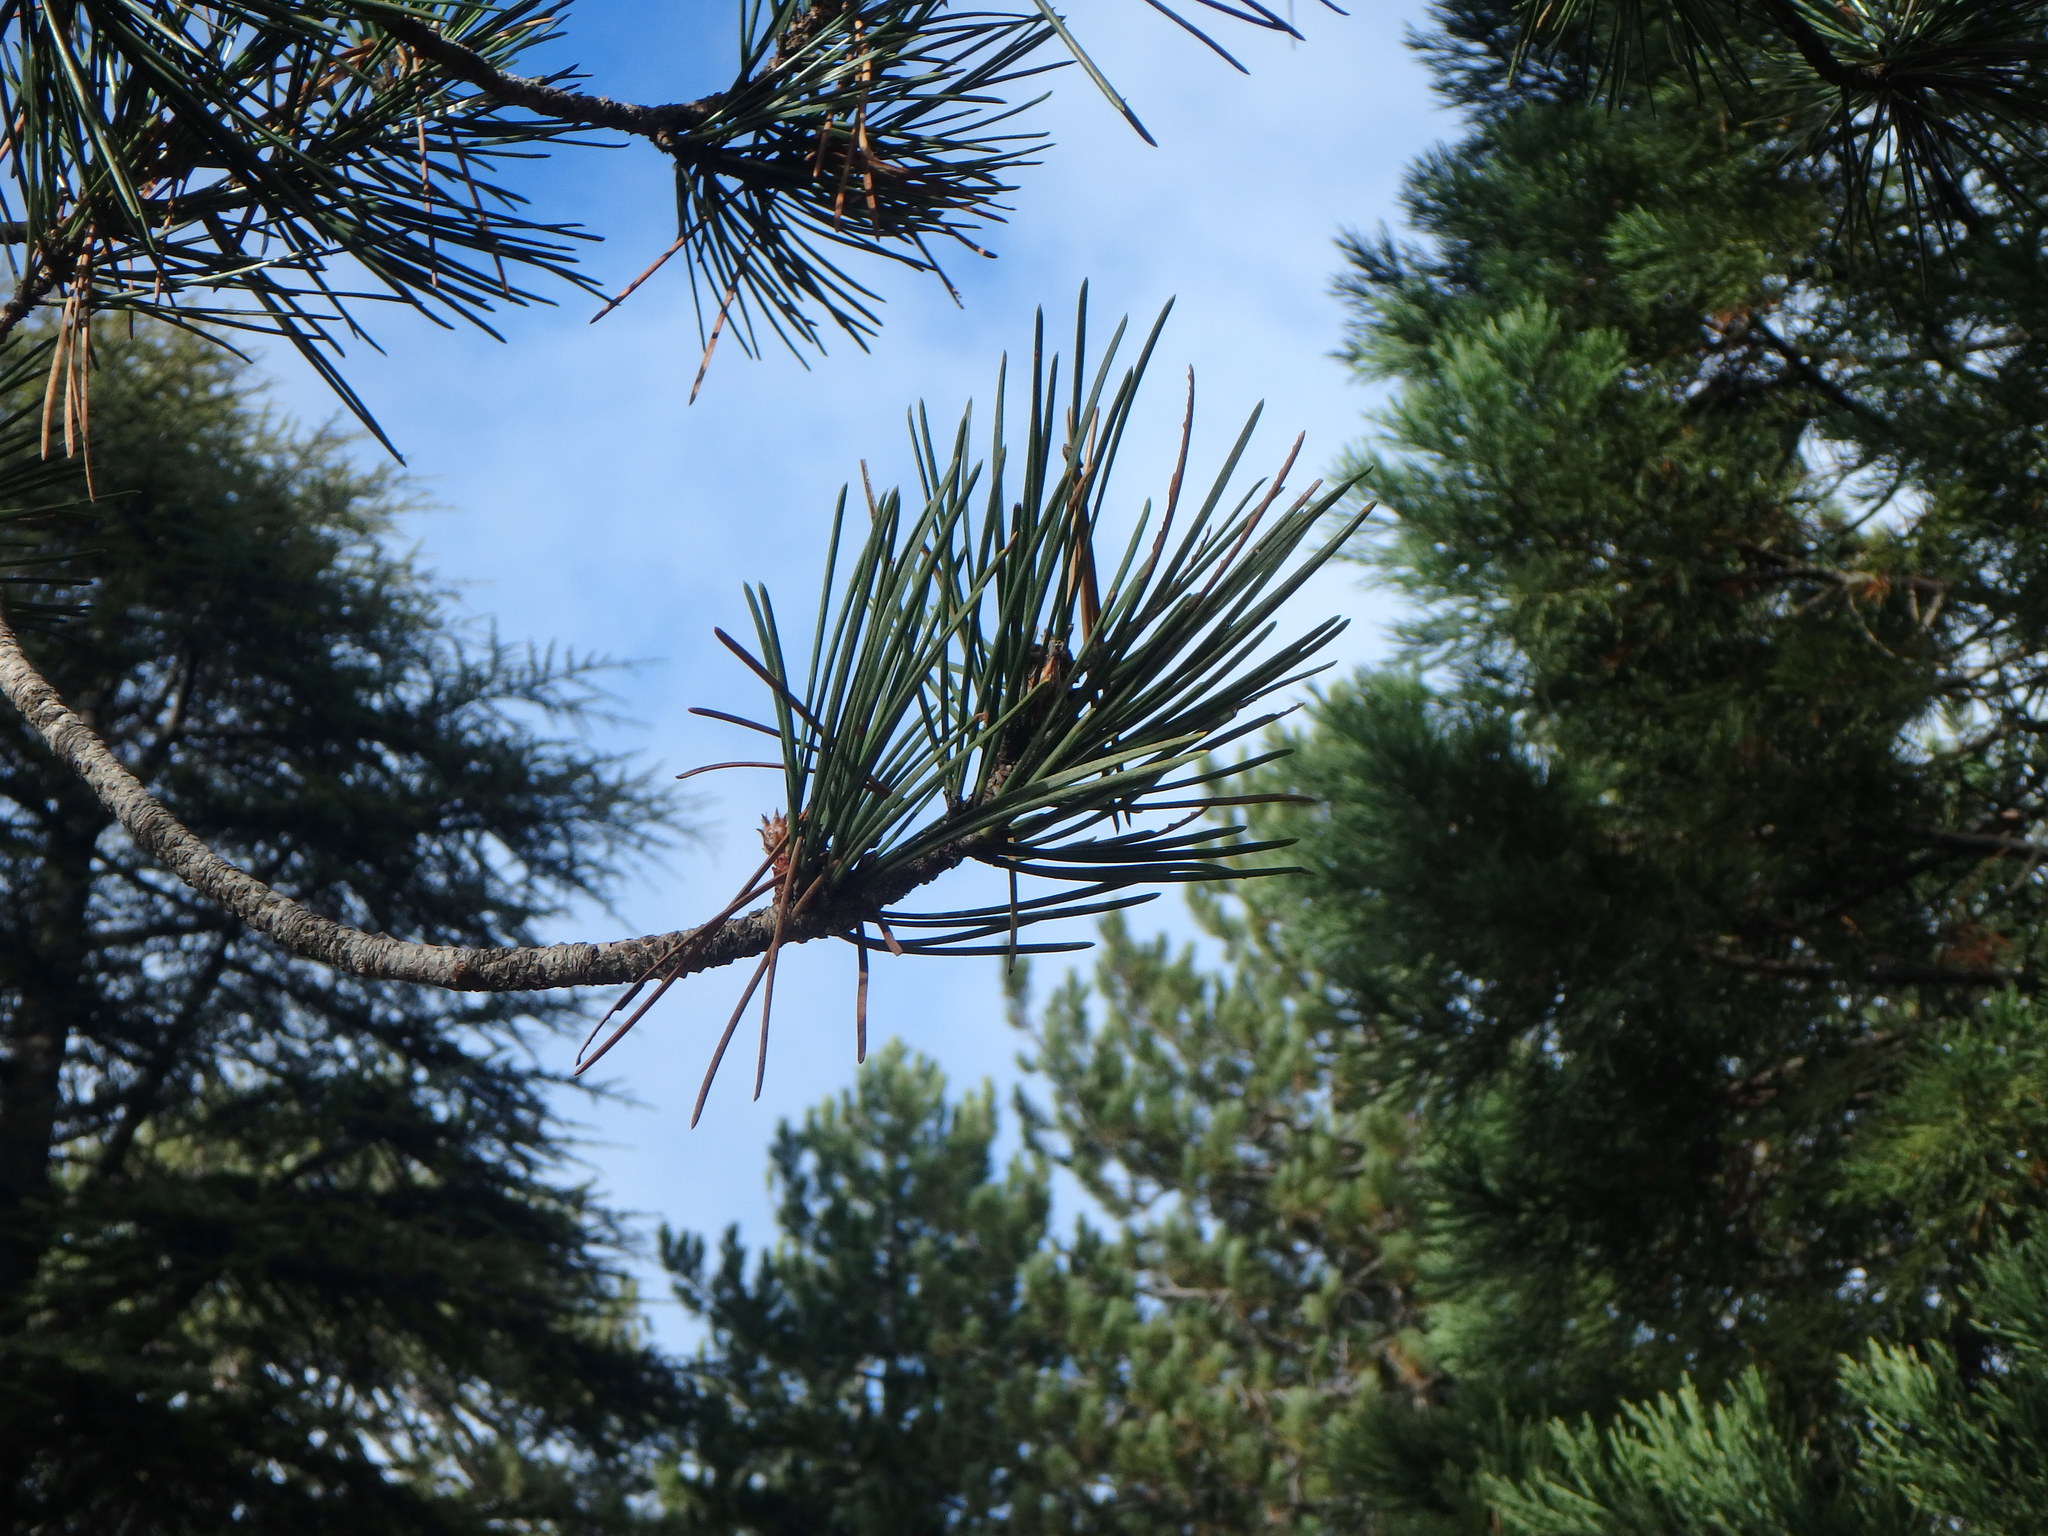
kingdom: Plantae
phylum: Tracheophyta
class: Pinopsida
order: Pinales
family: Pinaceae
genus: Pinus
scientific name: Pinus nigra
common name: Austrian pine
